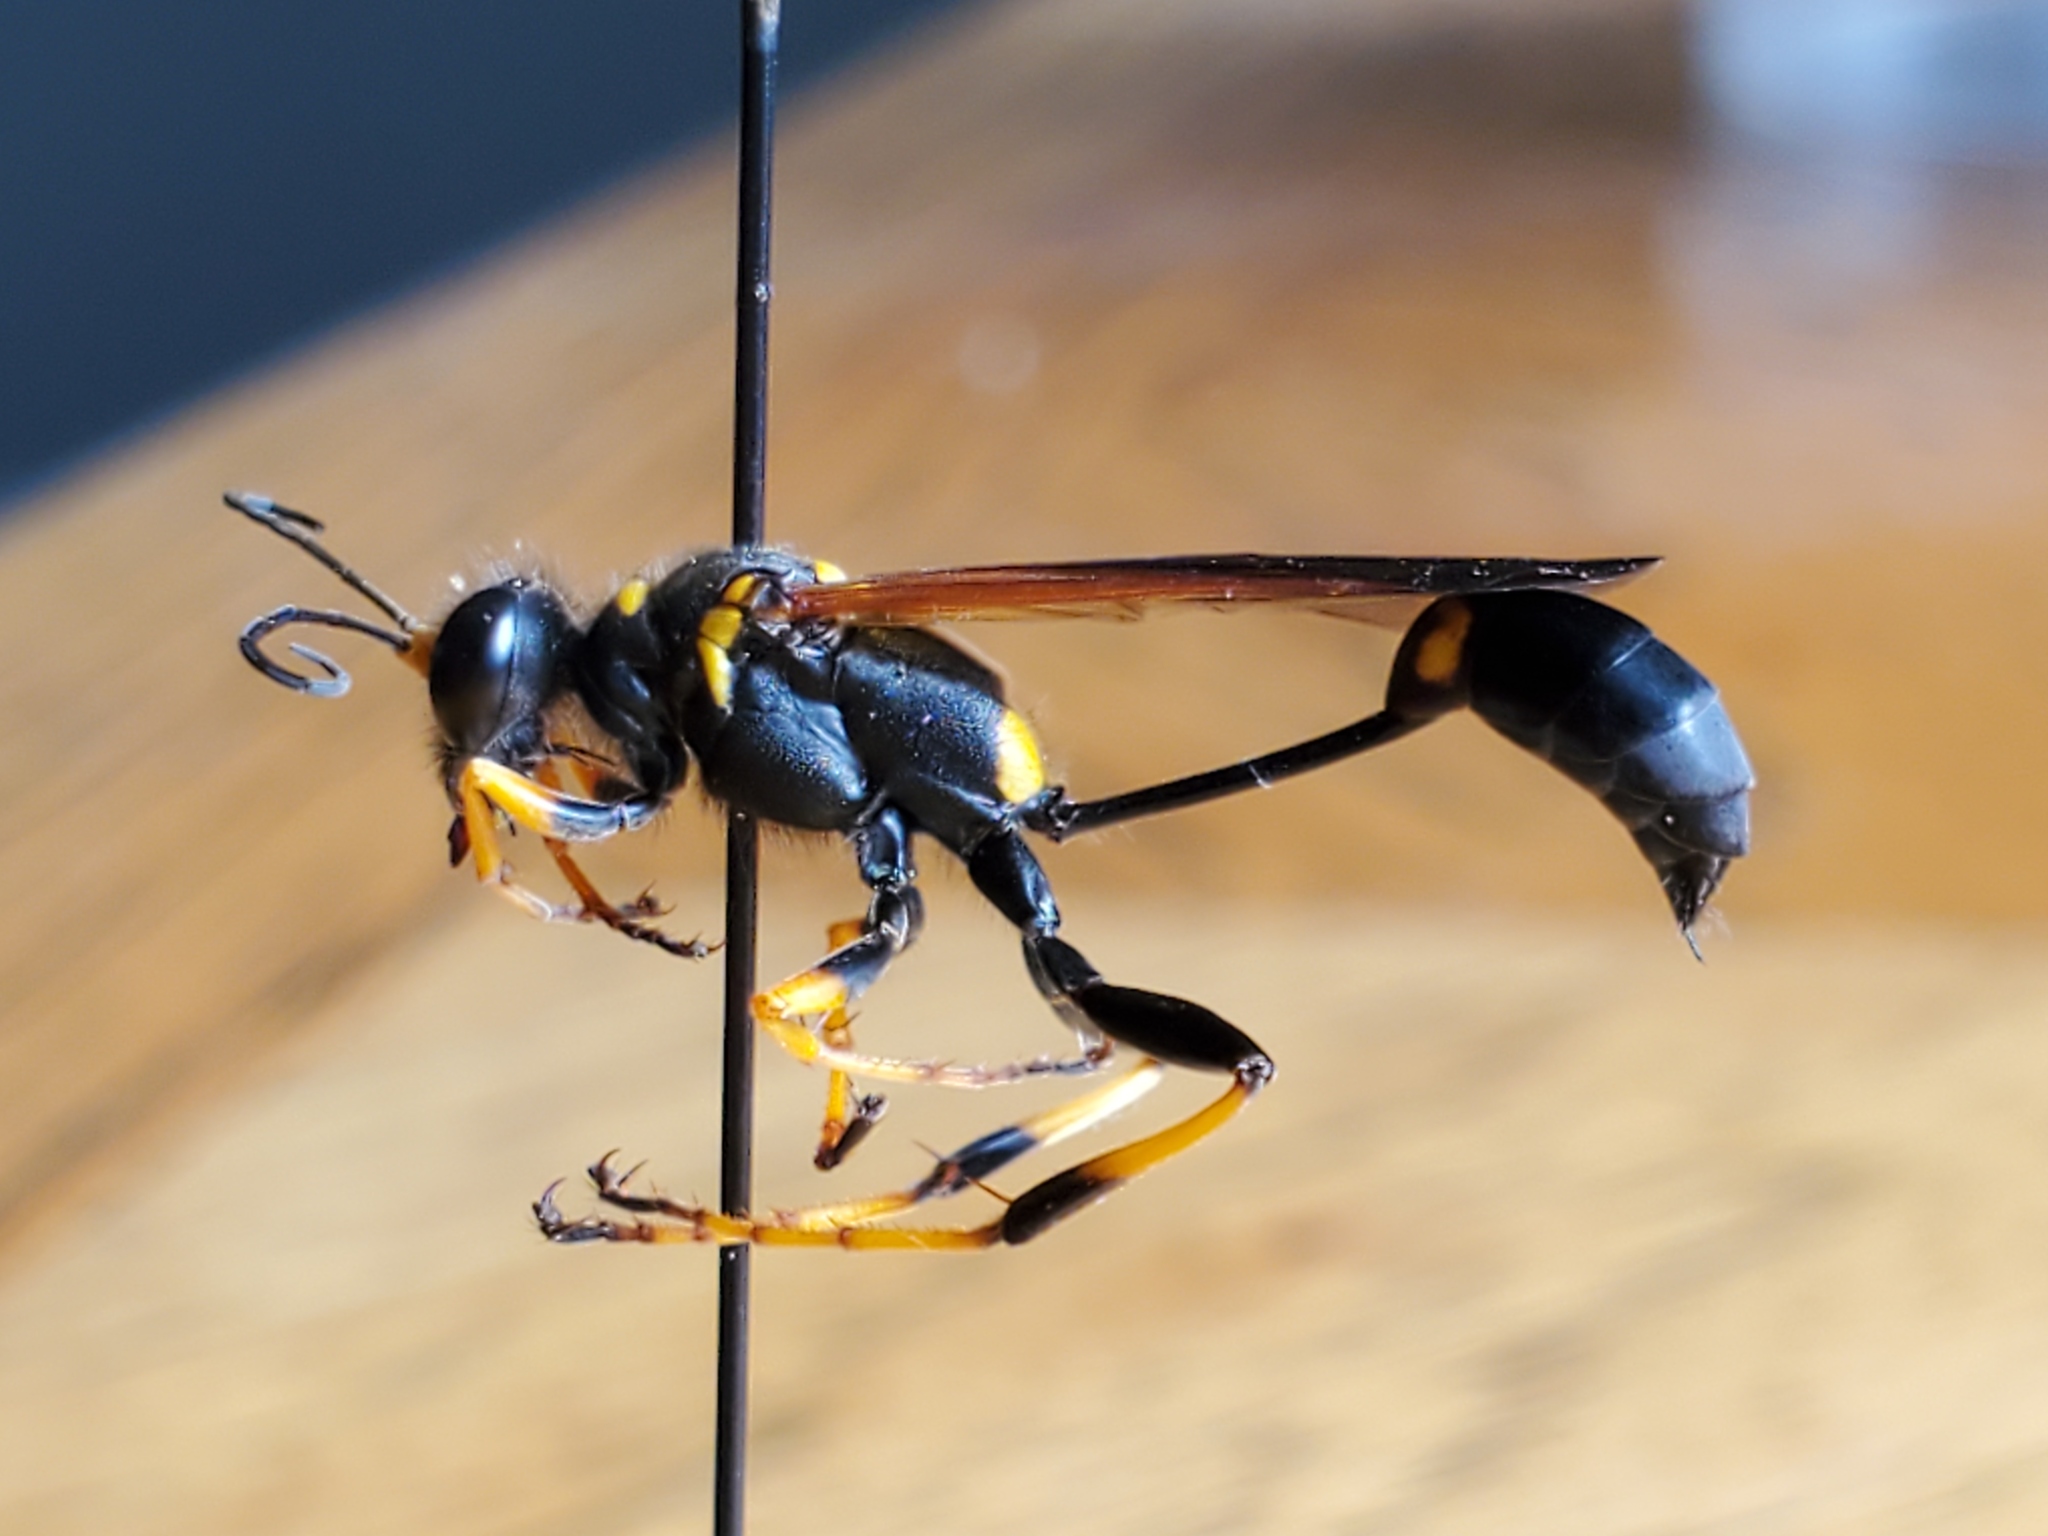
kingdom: Animalia
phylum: Arthropoda
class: Insecta
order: Hymenoptera
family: Sphecidae
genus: Sceliphron
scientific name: Sceliphron caementarium
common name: Mud dauber
